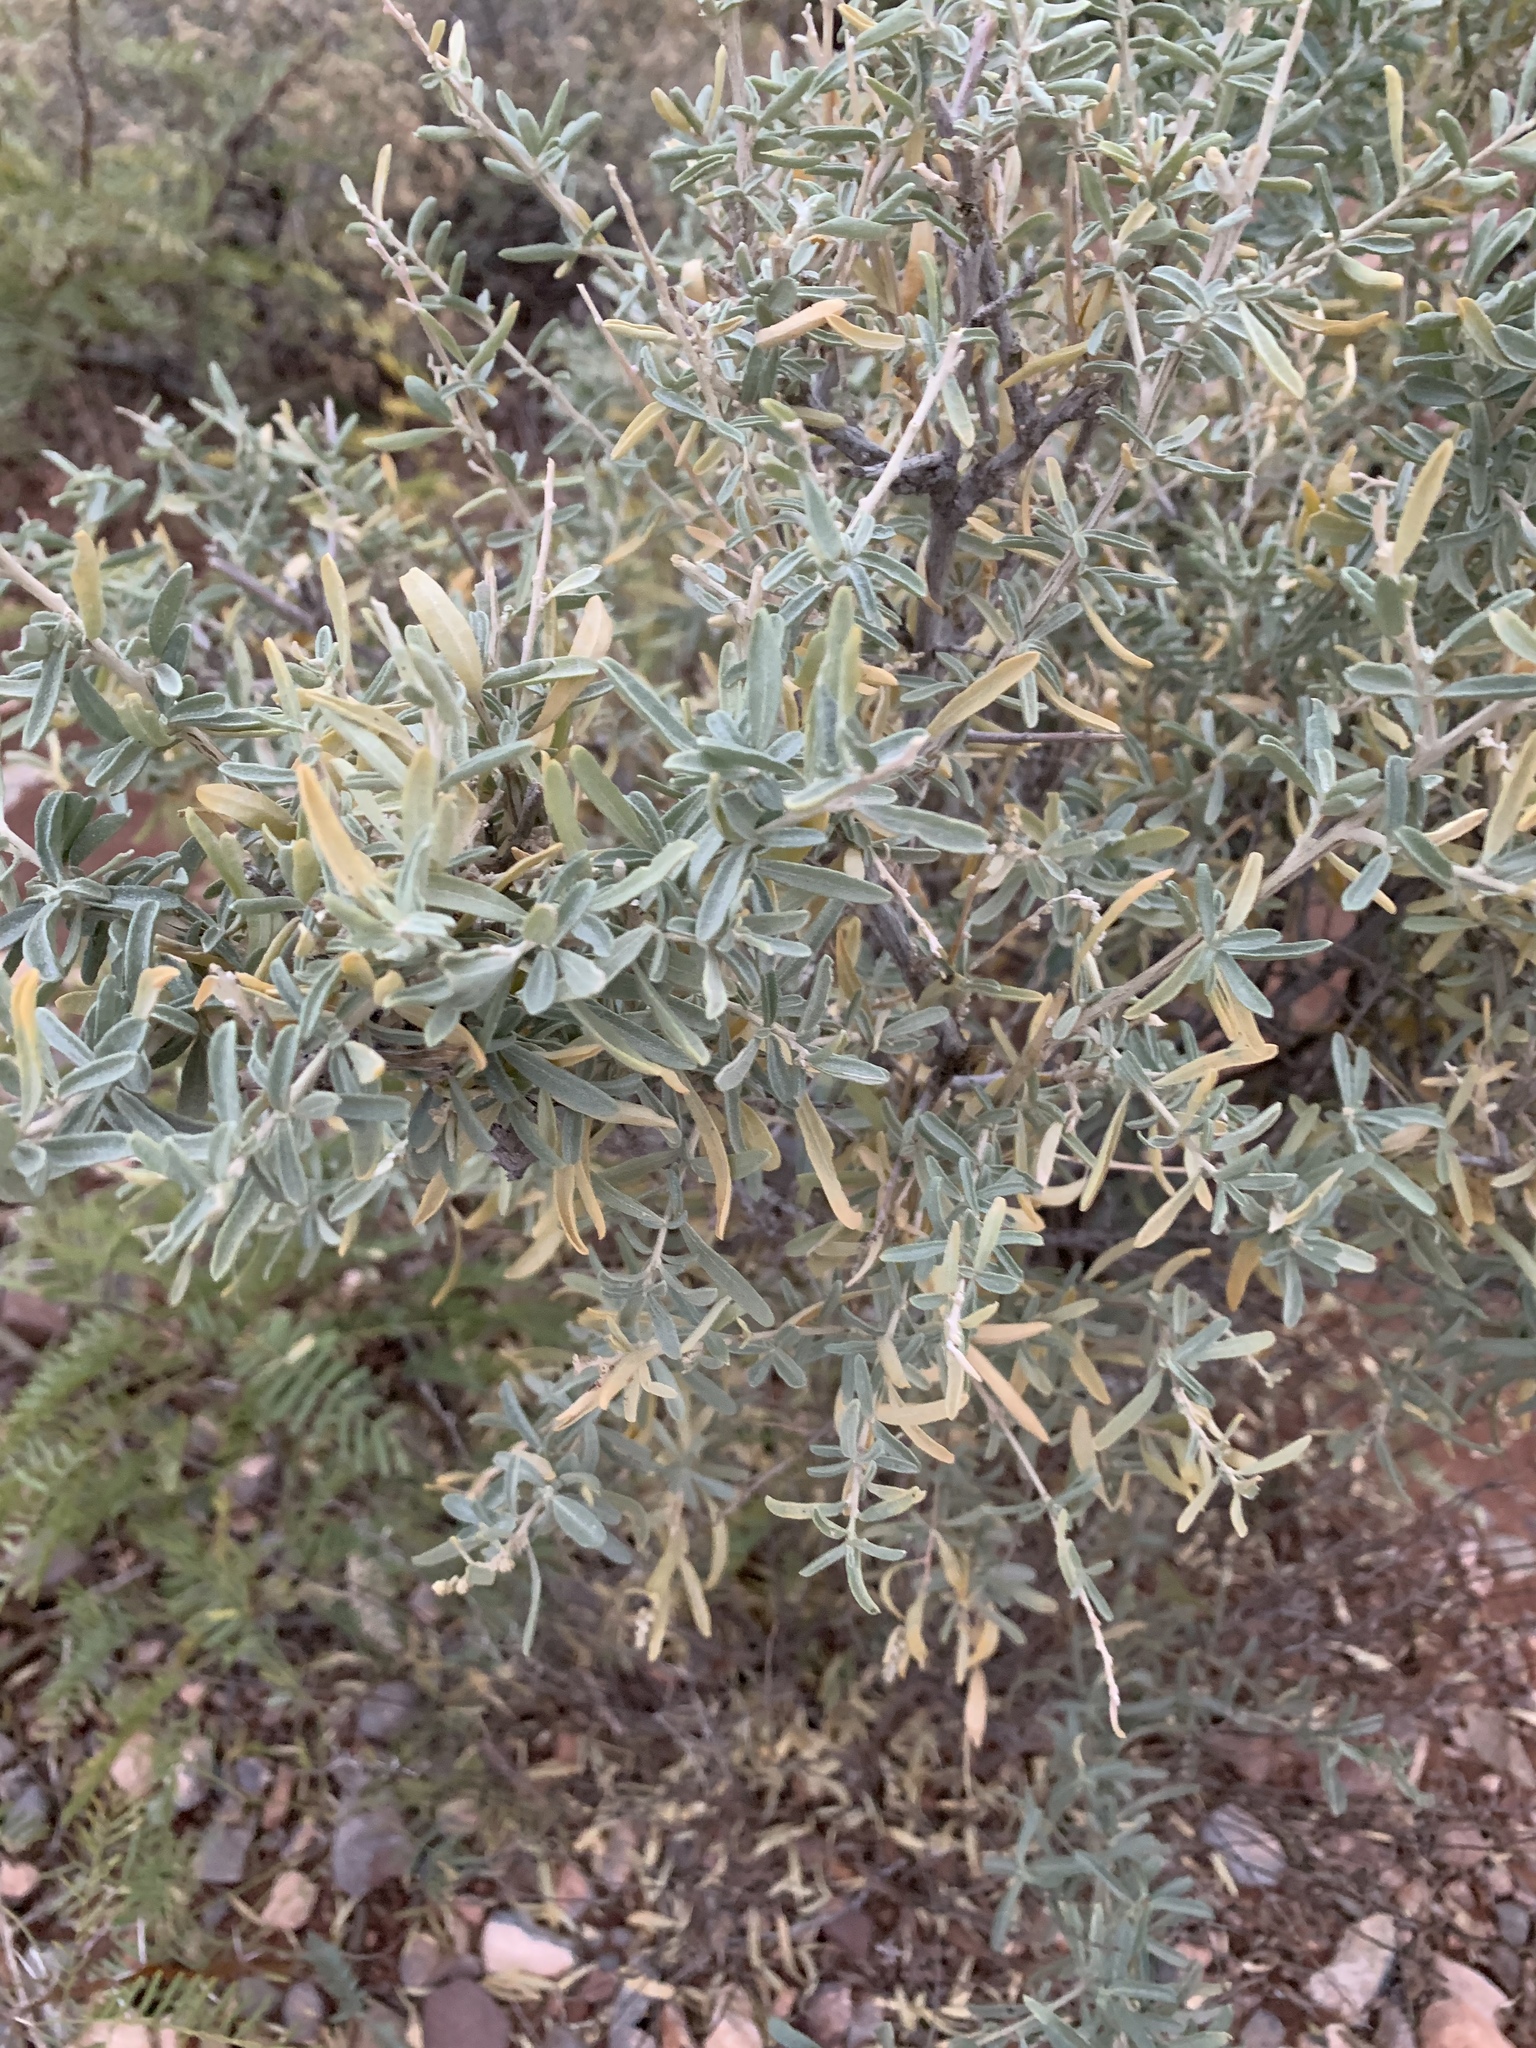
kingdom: Plantae
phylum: Tracheophyta
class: Magnoliopsida
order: Caryophyllales
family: Amaranthaceae
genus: Atriplex
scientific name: Atriplex canescens
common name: Four-wing saltbush
